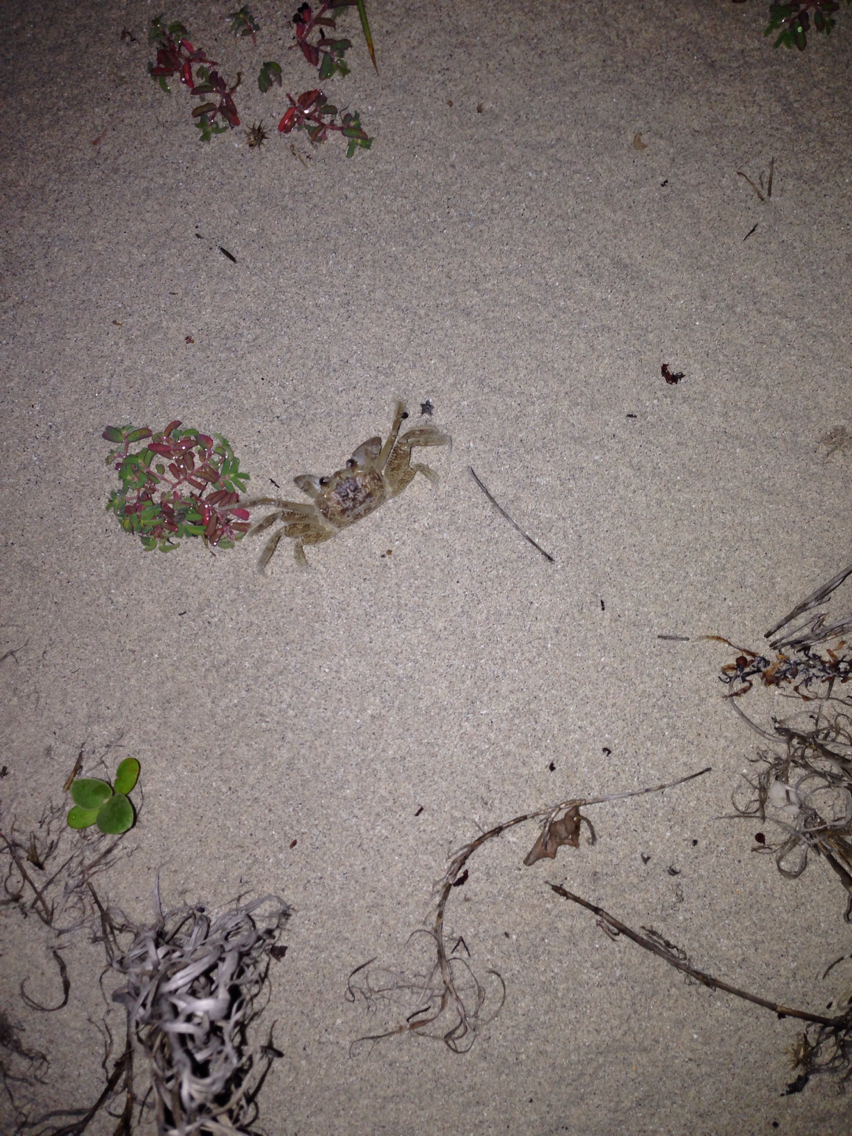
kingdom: Animalia
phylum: Arthropoda
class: Malacostraca
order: Decapoda
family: Ocypodidae
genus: Ocypode
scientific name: Ocypode quadrata
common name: Ghost crab
